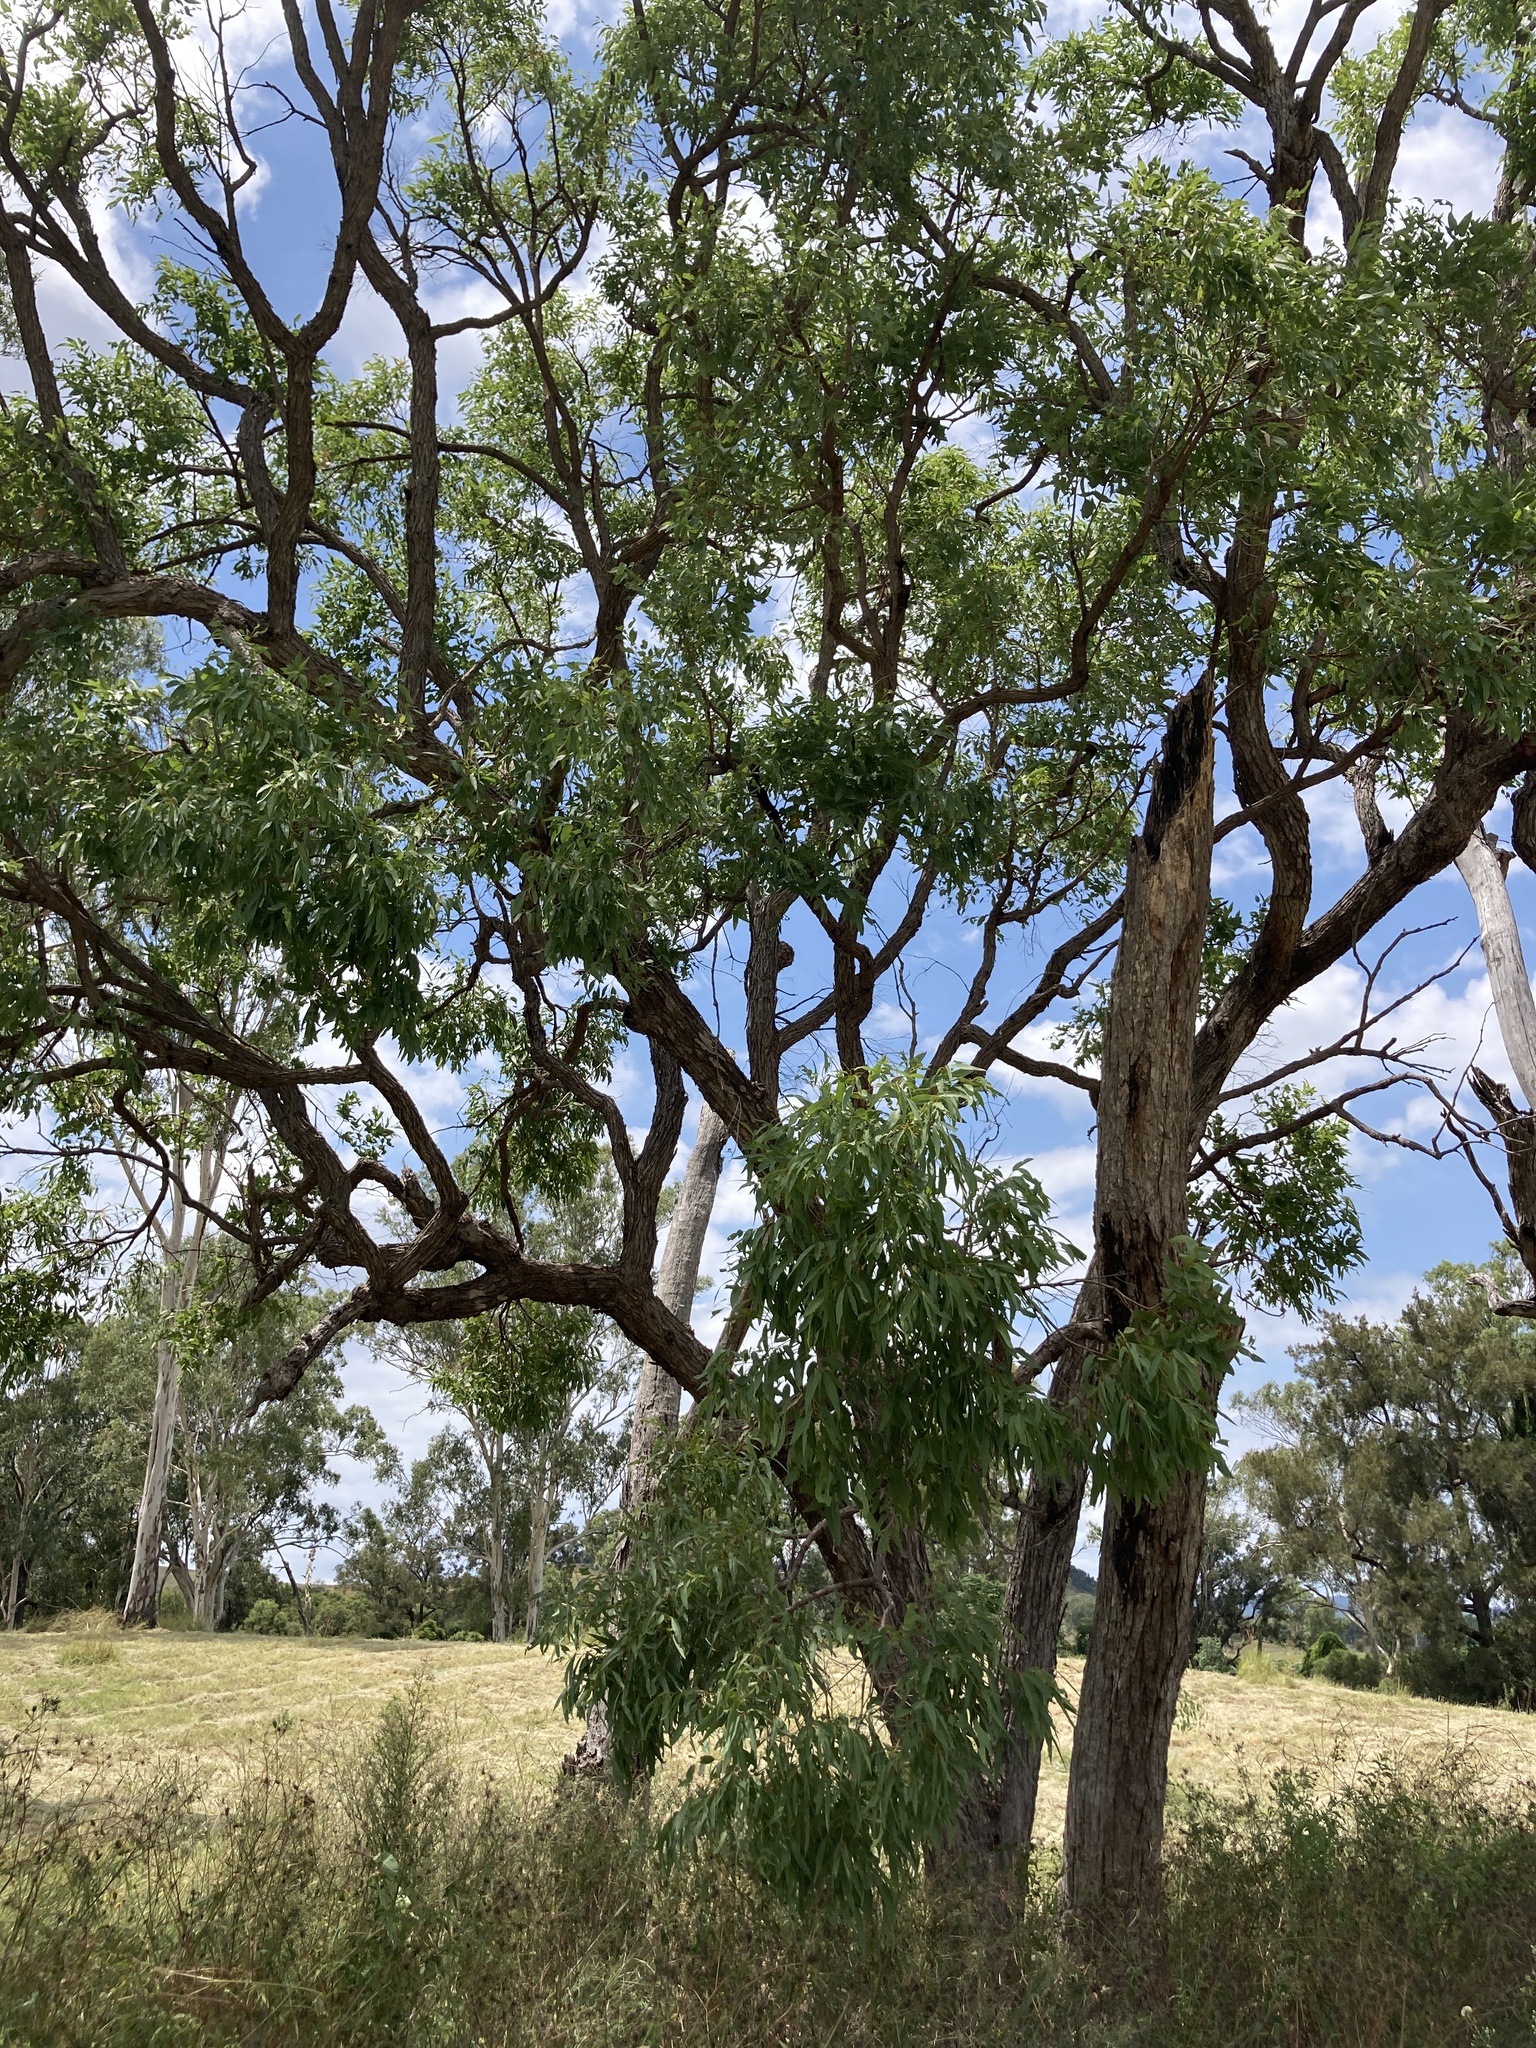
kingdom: Plantae
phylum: Tracheophyta
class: Magnoliopsida
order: Myrtales
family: Myrtaceae
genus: Angophora
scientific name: Angophora floribunda
